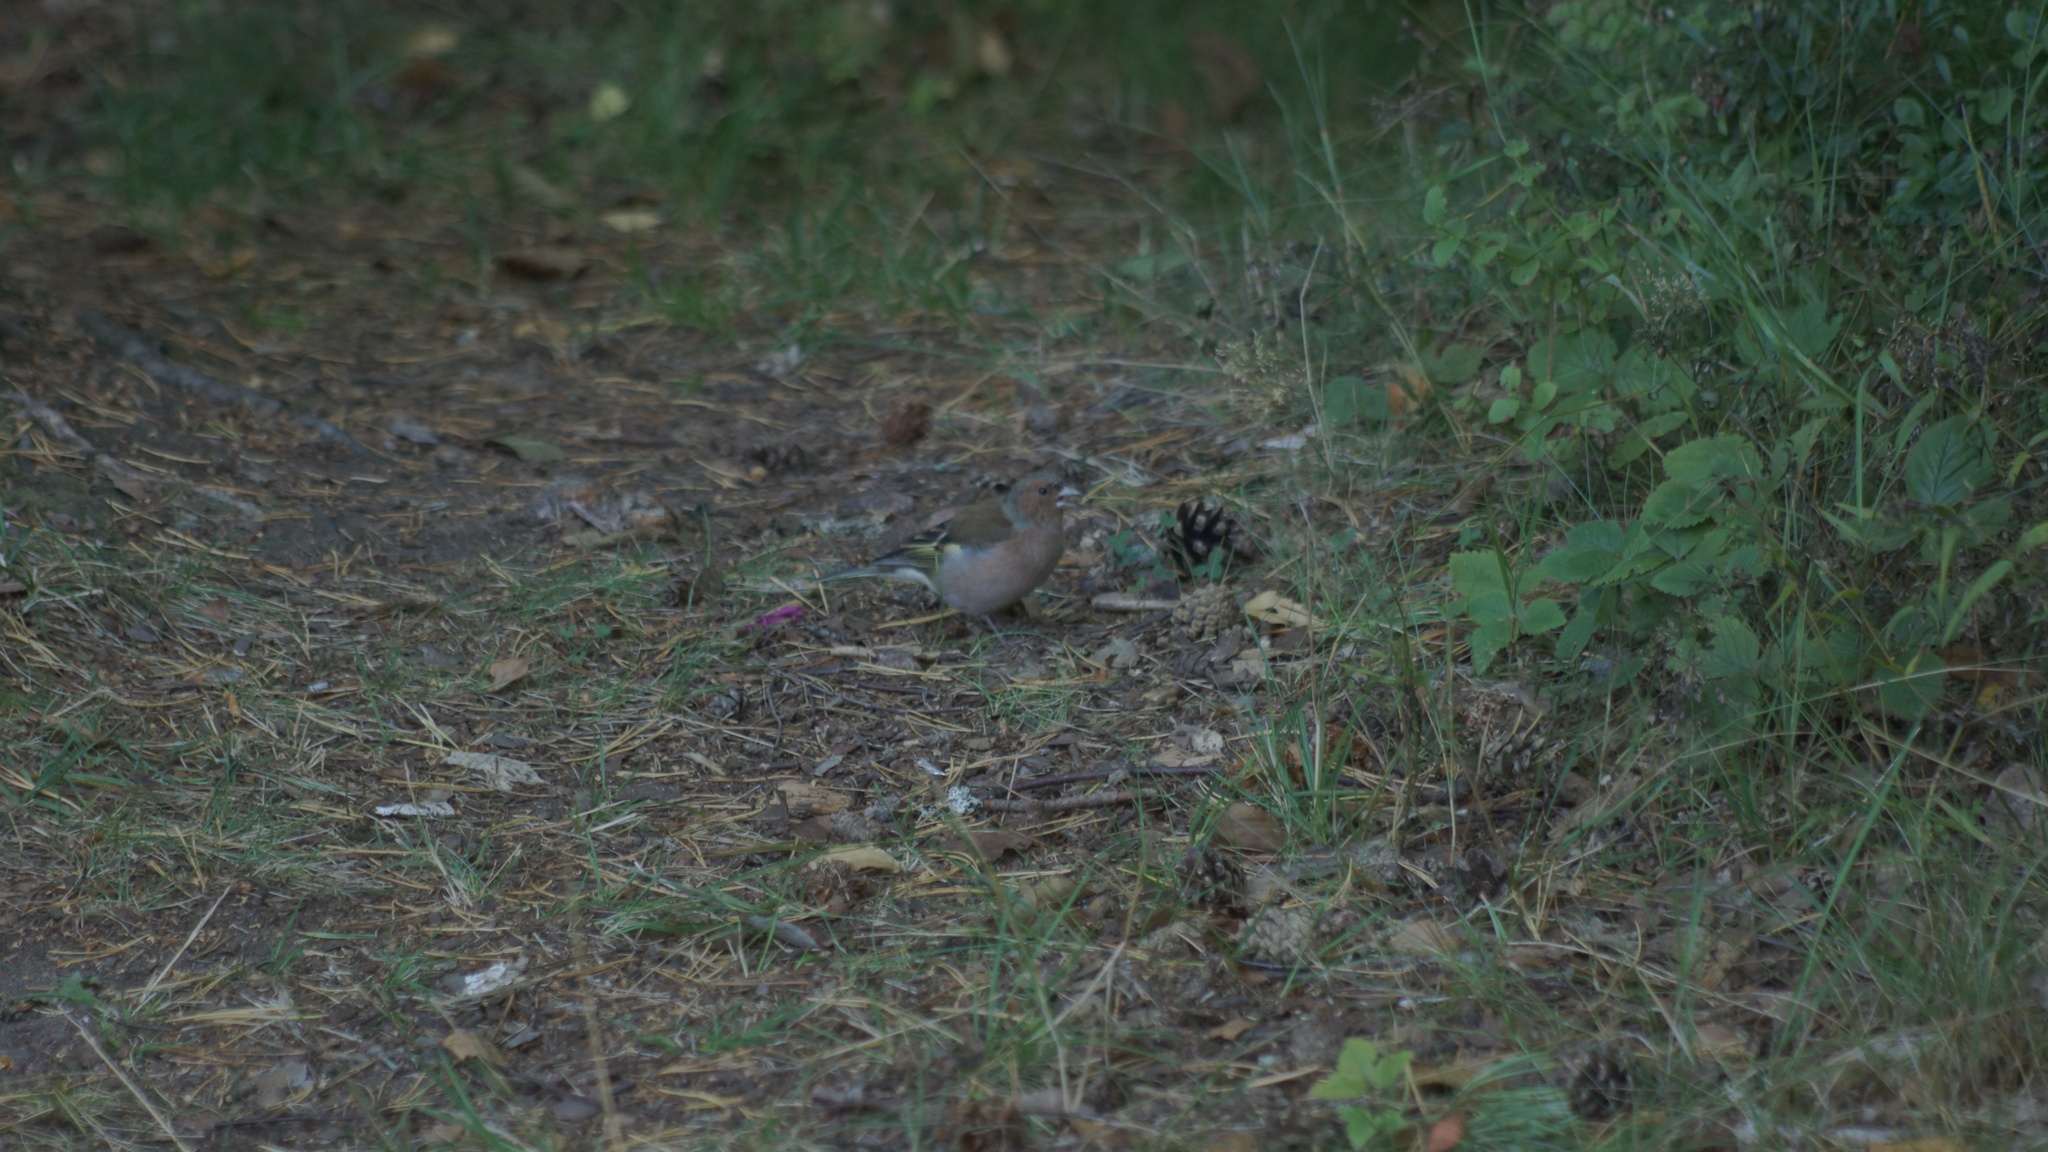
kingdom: Animalia
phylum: Chordata
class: Aves
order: Passeriformes
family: Fringillidae
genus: Fringilla
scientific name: Fringilla coelebs
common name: Common chaffinch
